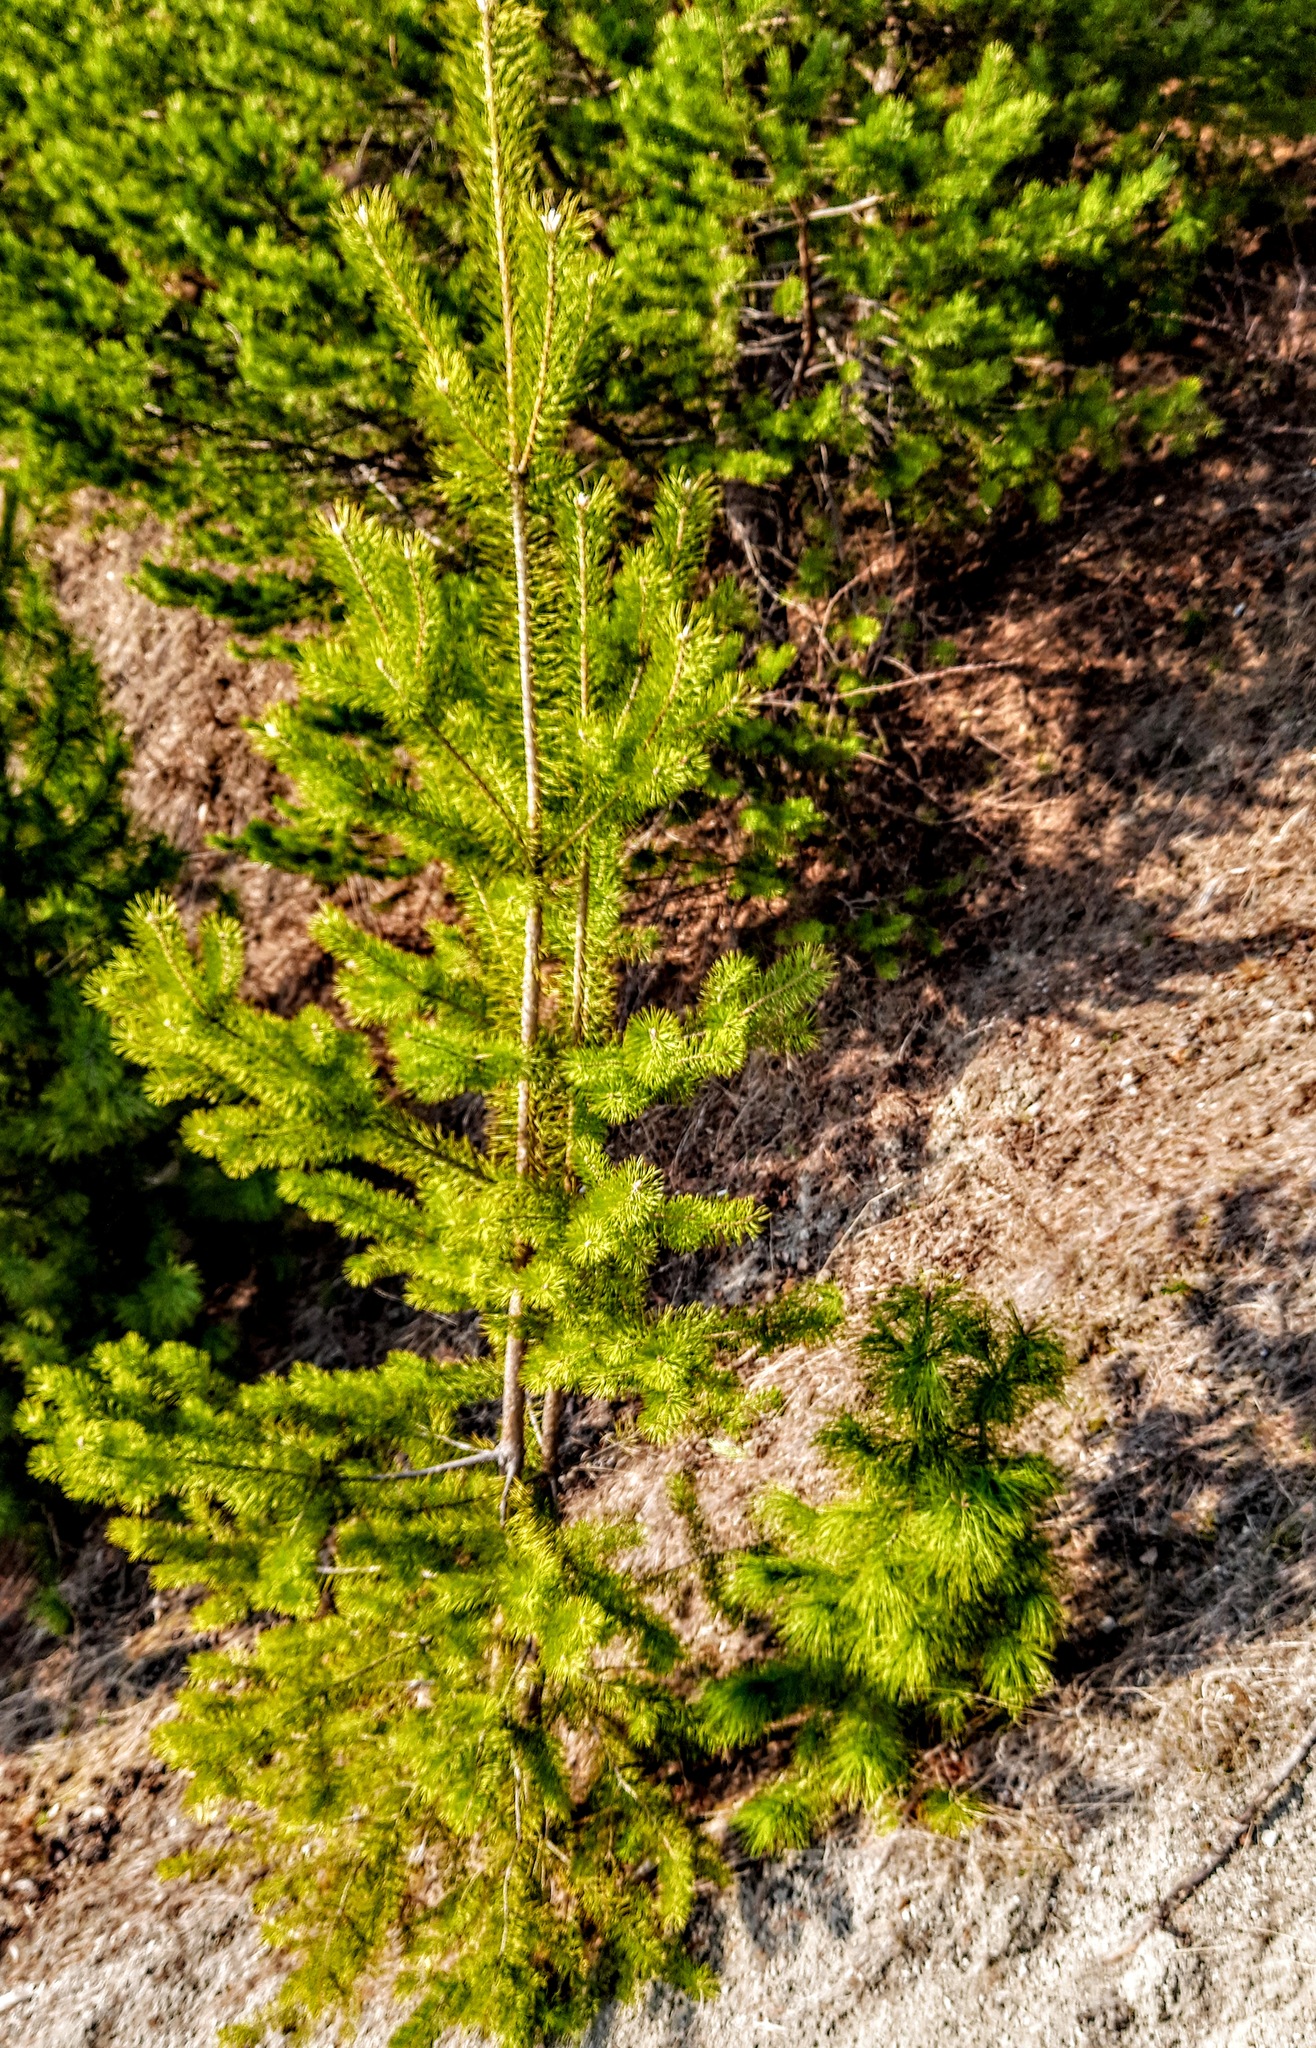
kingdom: Plantae
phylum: Tracheophyta
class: Pinopsida
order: Pinales
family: Pinaceae
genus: Pinus
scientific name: Pinus sylvestris
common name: Scots pine
